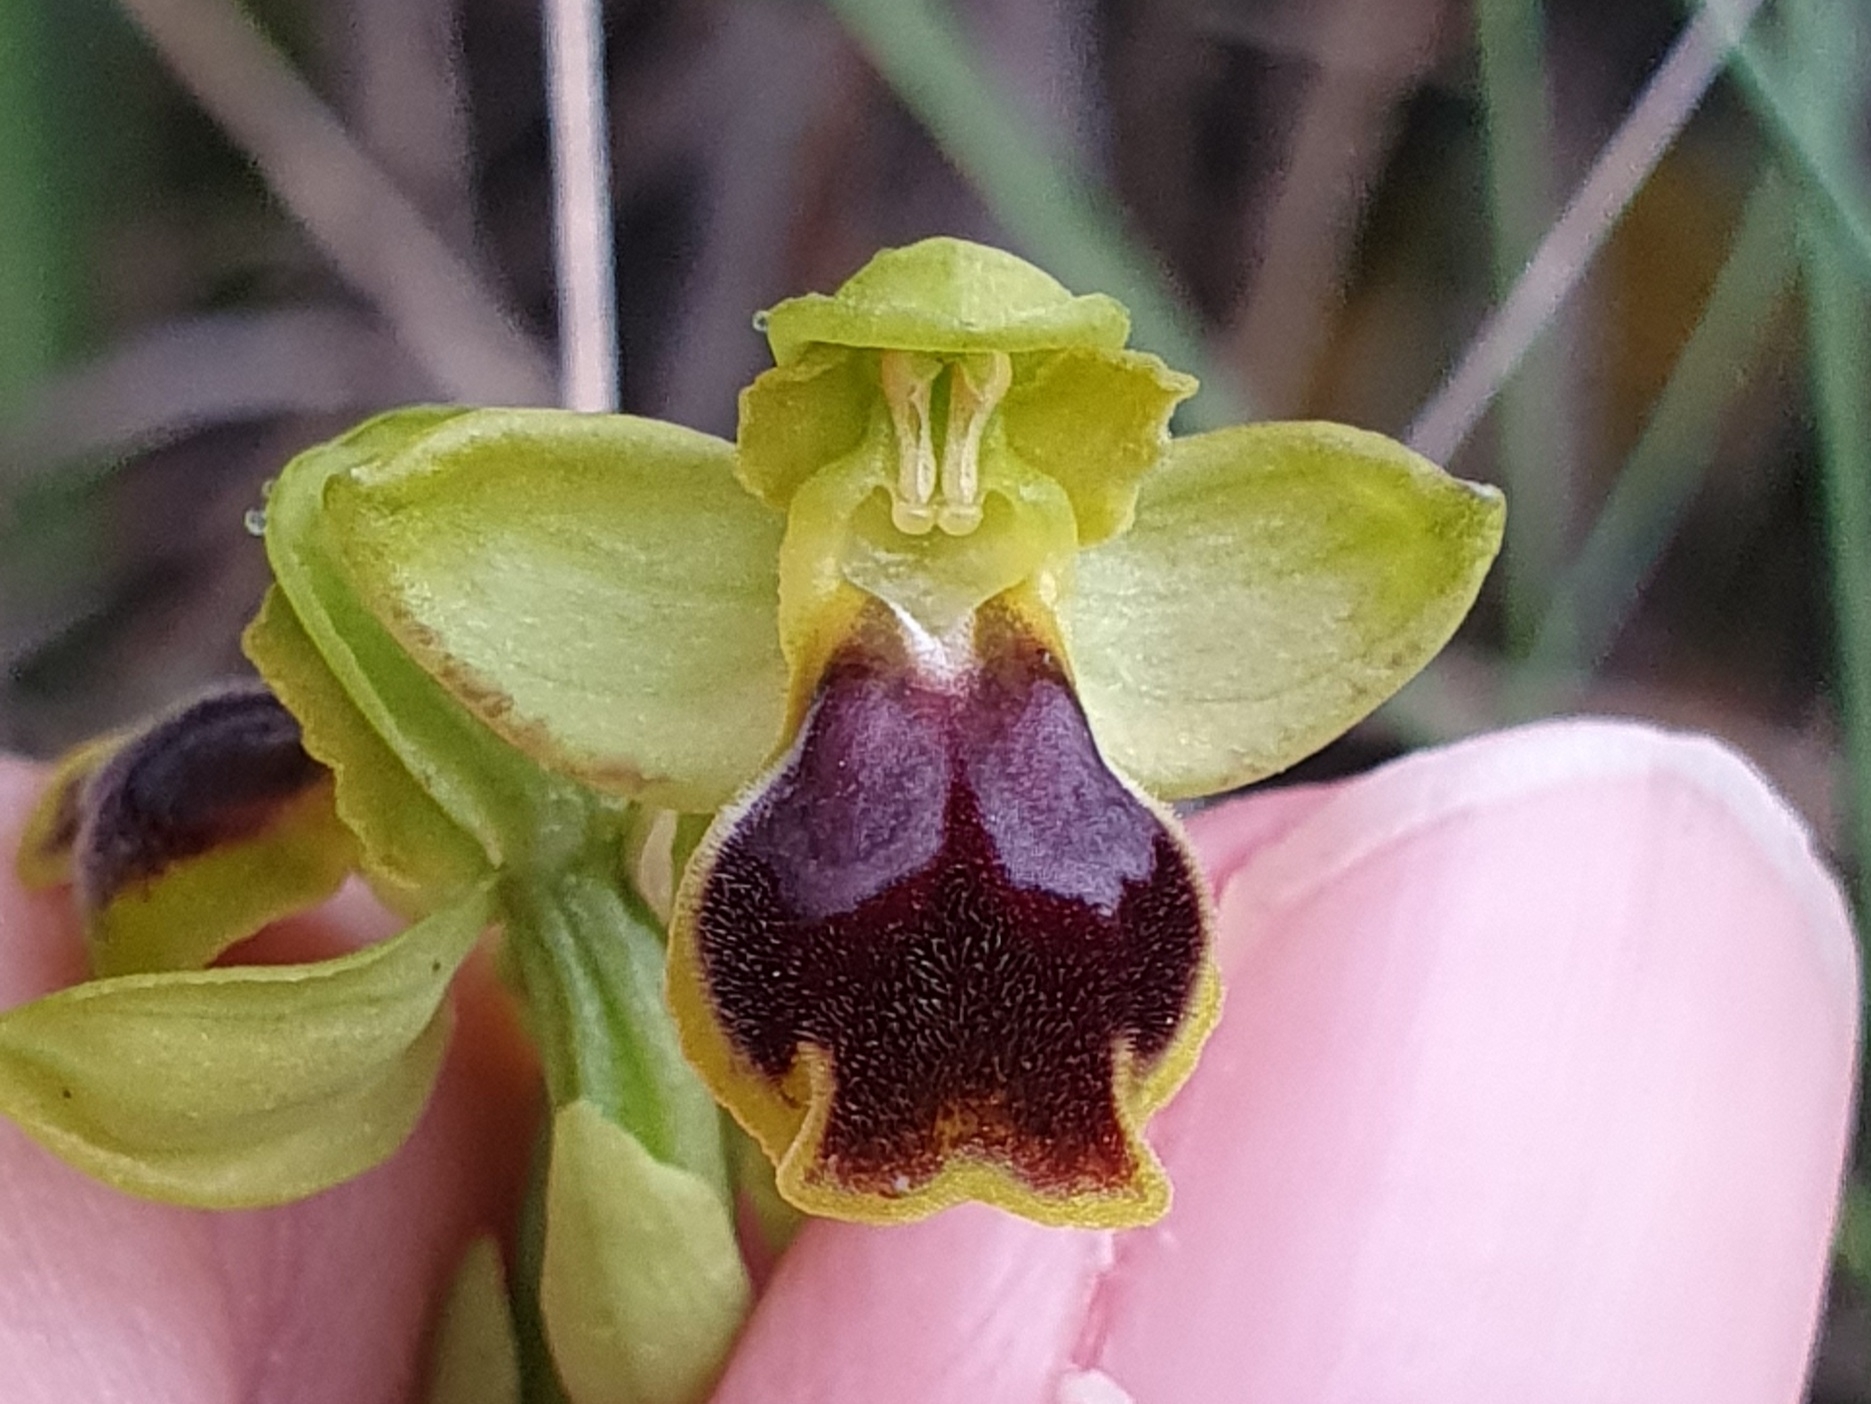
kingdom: Plantae
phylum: Tracheophyta
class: Liliopsida
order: Asparagales
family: Orchidaceae
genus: Ophrys
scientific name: Ophrys fusca
